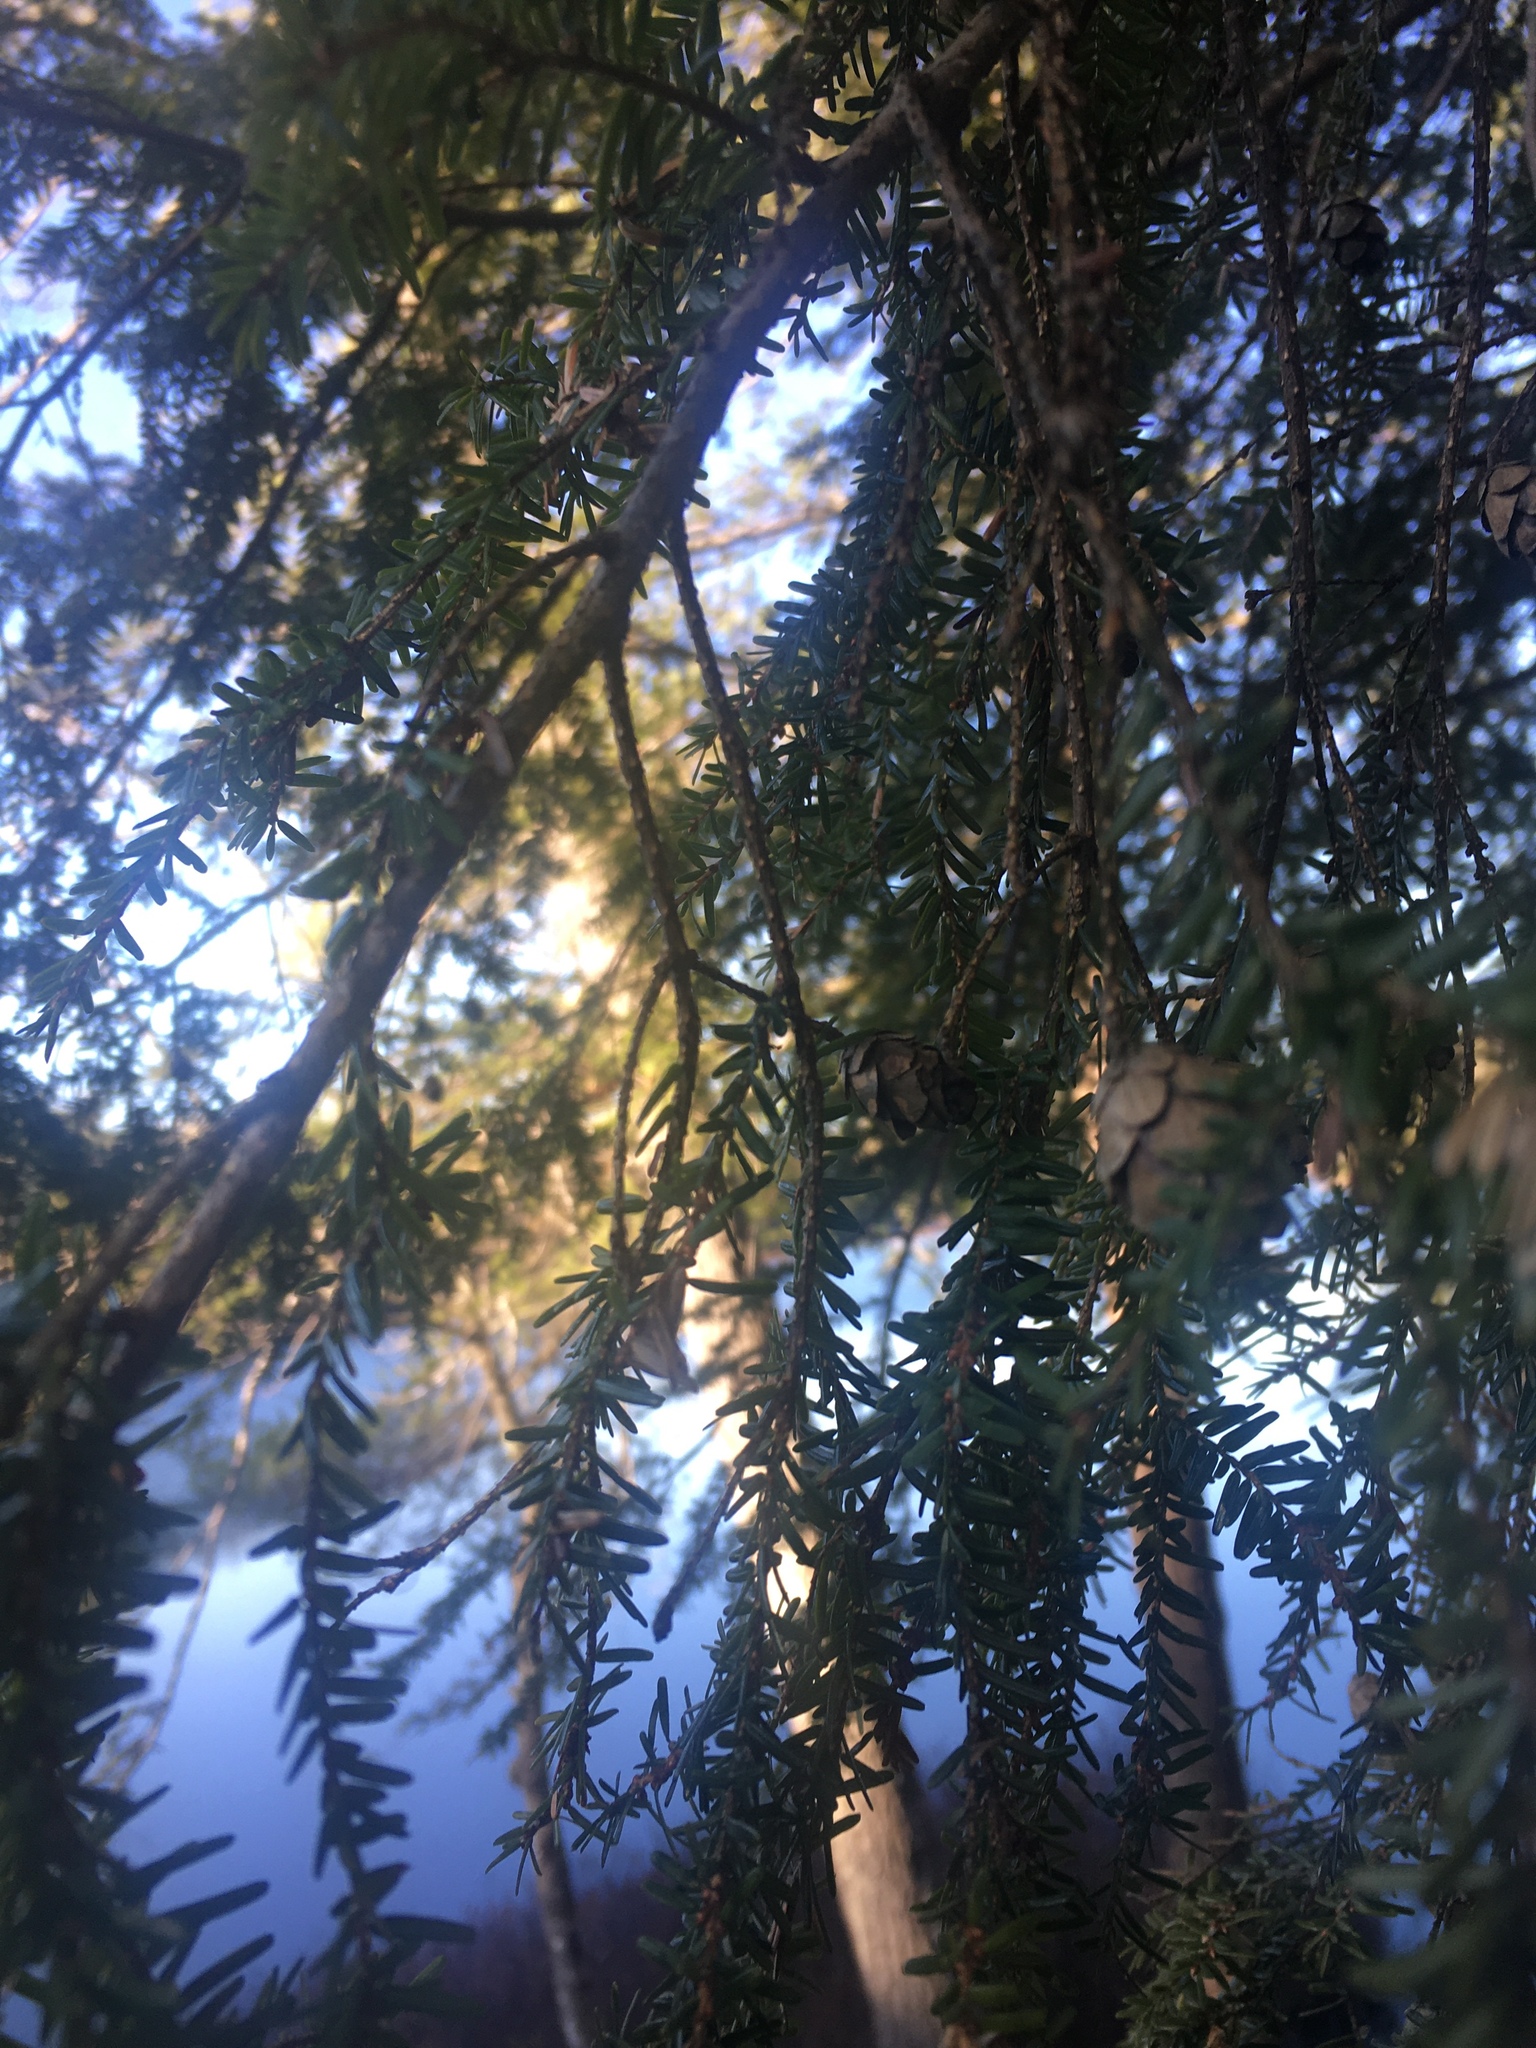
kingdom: Plantae
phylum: Tracheophyta
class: Pinopsida
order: Pinales
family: Pinaceae
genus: Tsuga
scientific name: Tsuga canadensis
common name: Eastern hemlock
